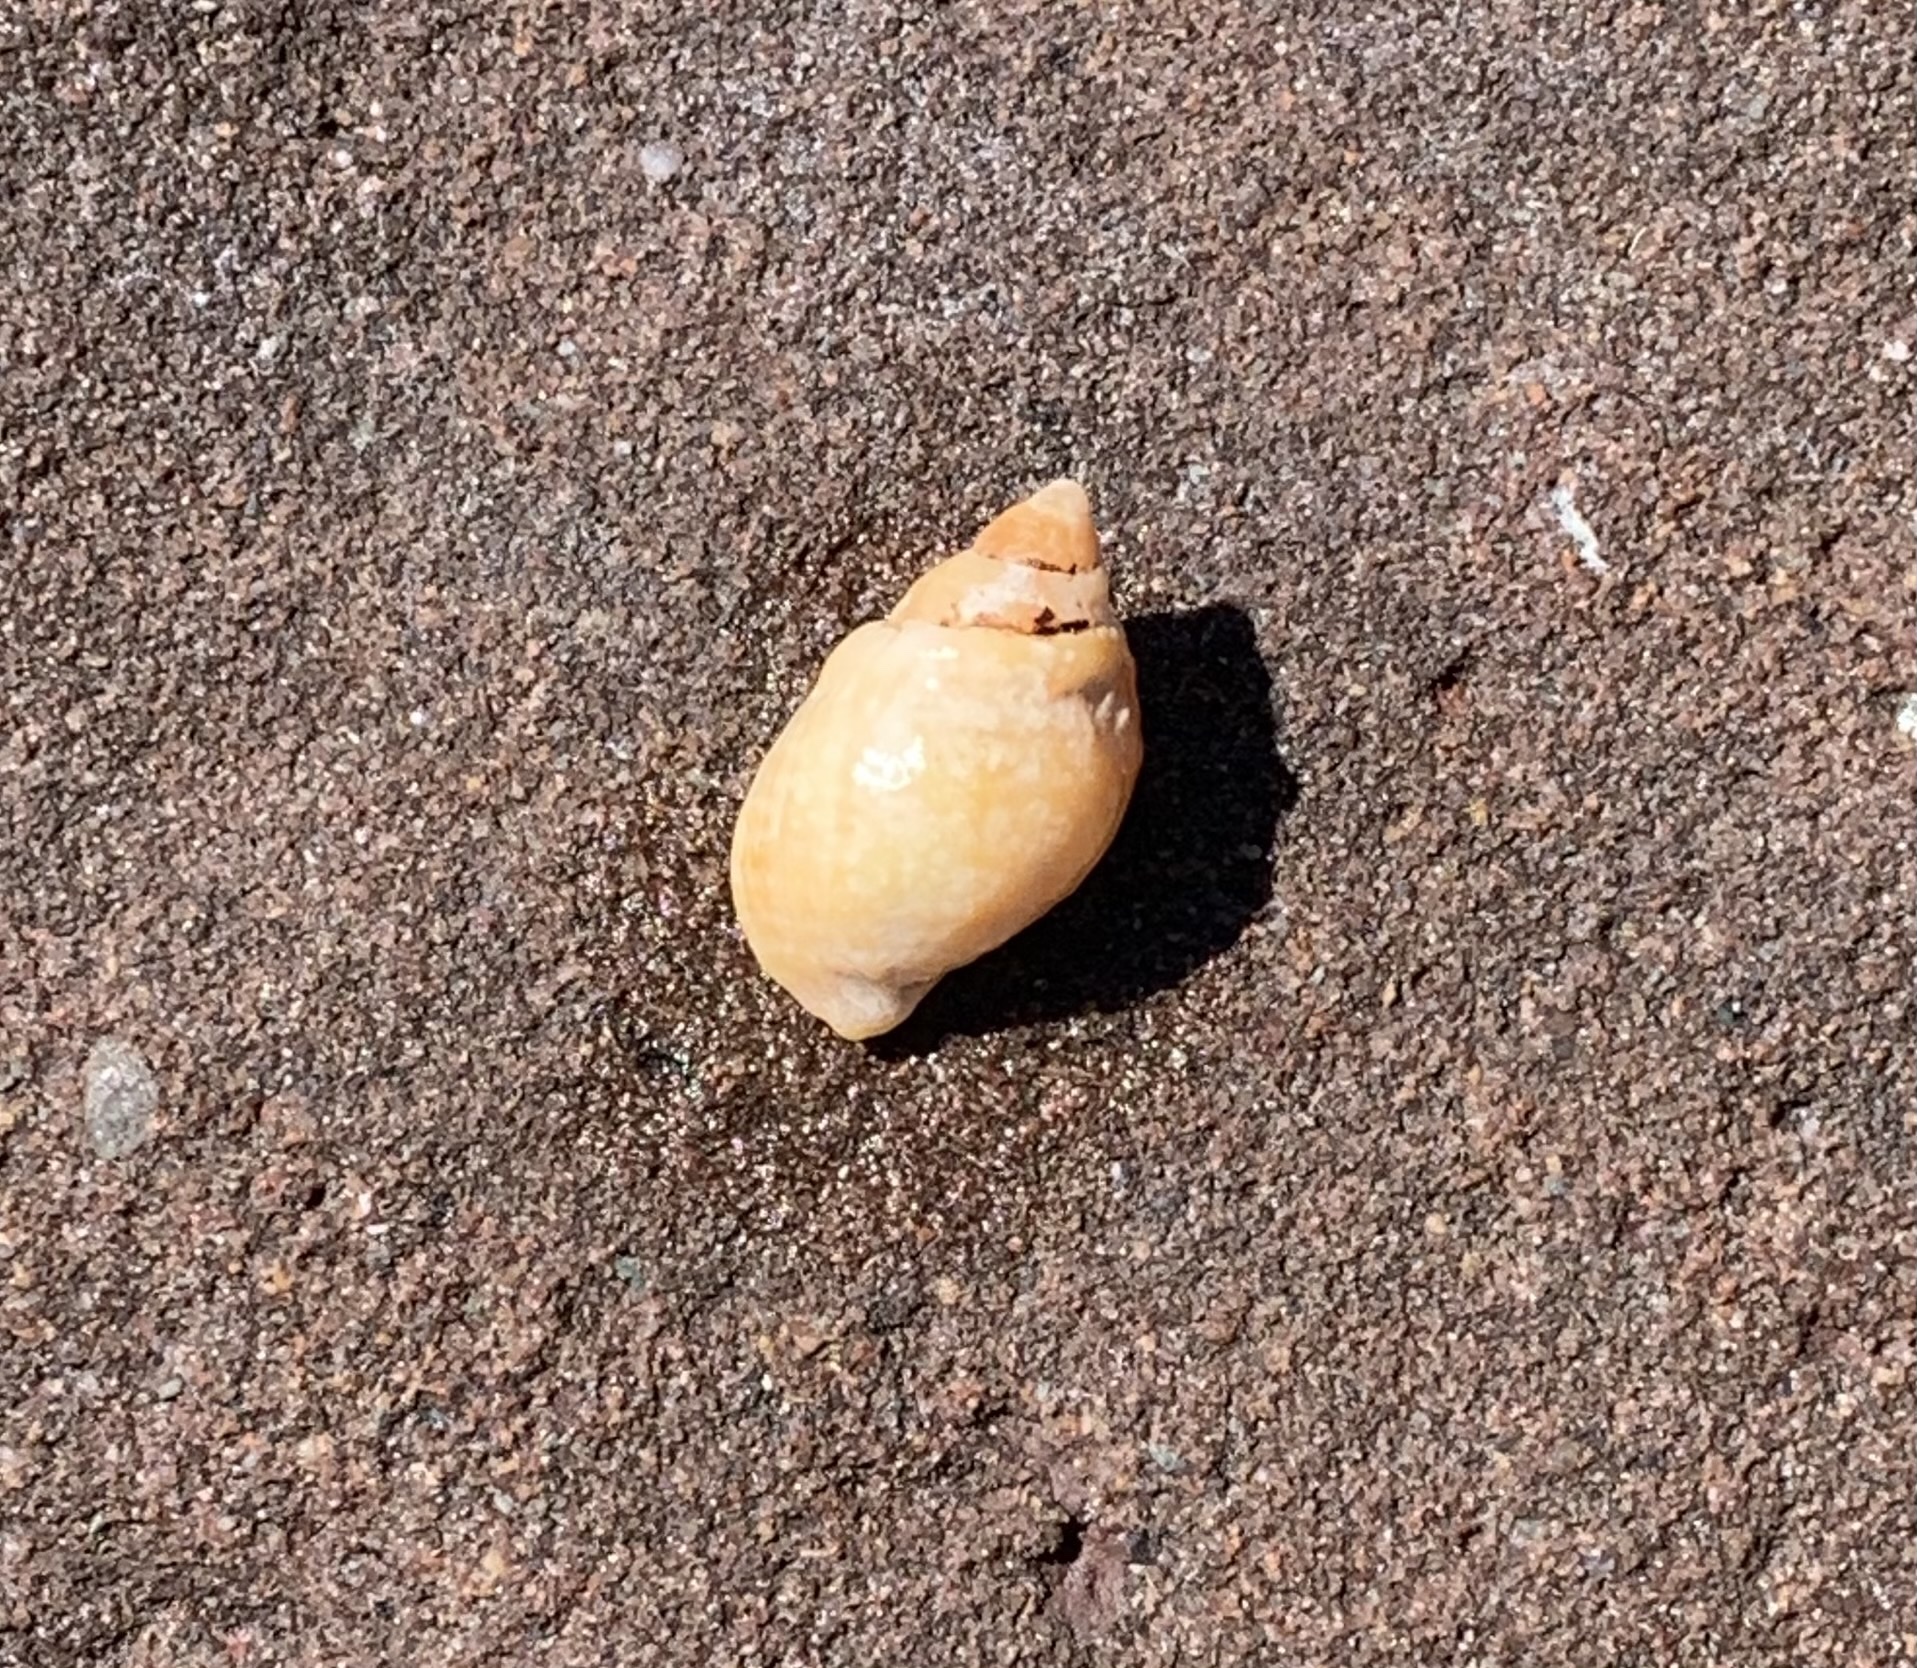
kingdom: Animalia
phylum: Mollusca
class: Gastropoda
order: Neogastropoda
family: Muricidae
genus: Nucella
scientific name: Nucella lapillus
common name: Dog whelk
